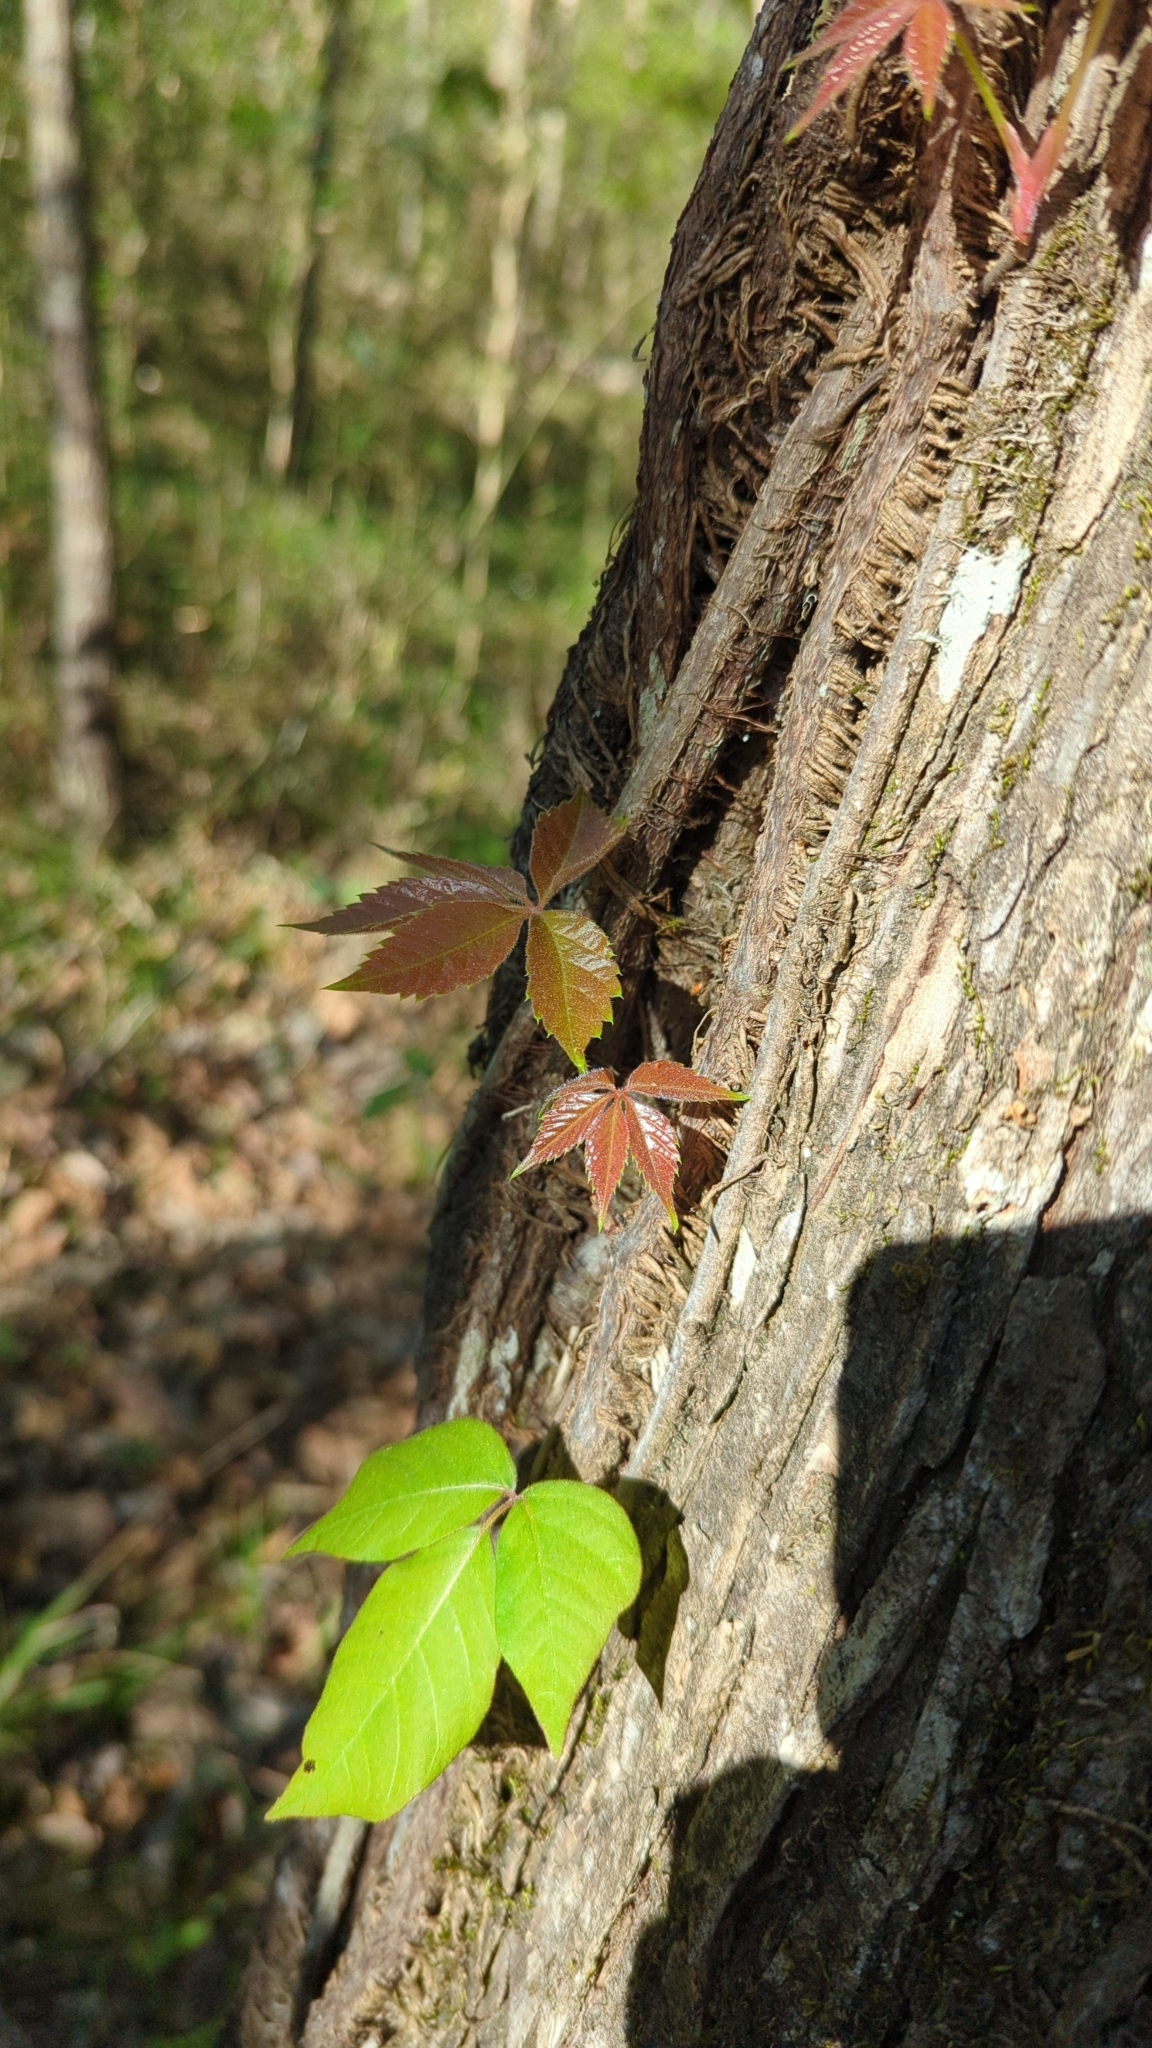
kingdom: Plantae
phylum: Tracheophyta
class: Magnoliopsida
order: Vitales
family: Vitaceae
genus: Parthenocissus
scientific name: Parthenocissus quinquefolia
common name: Virginia-creeper
